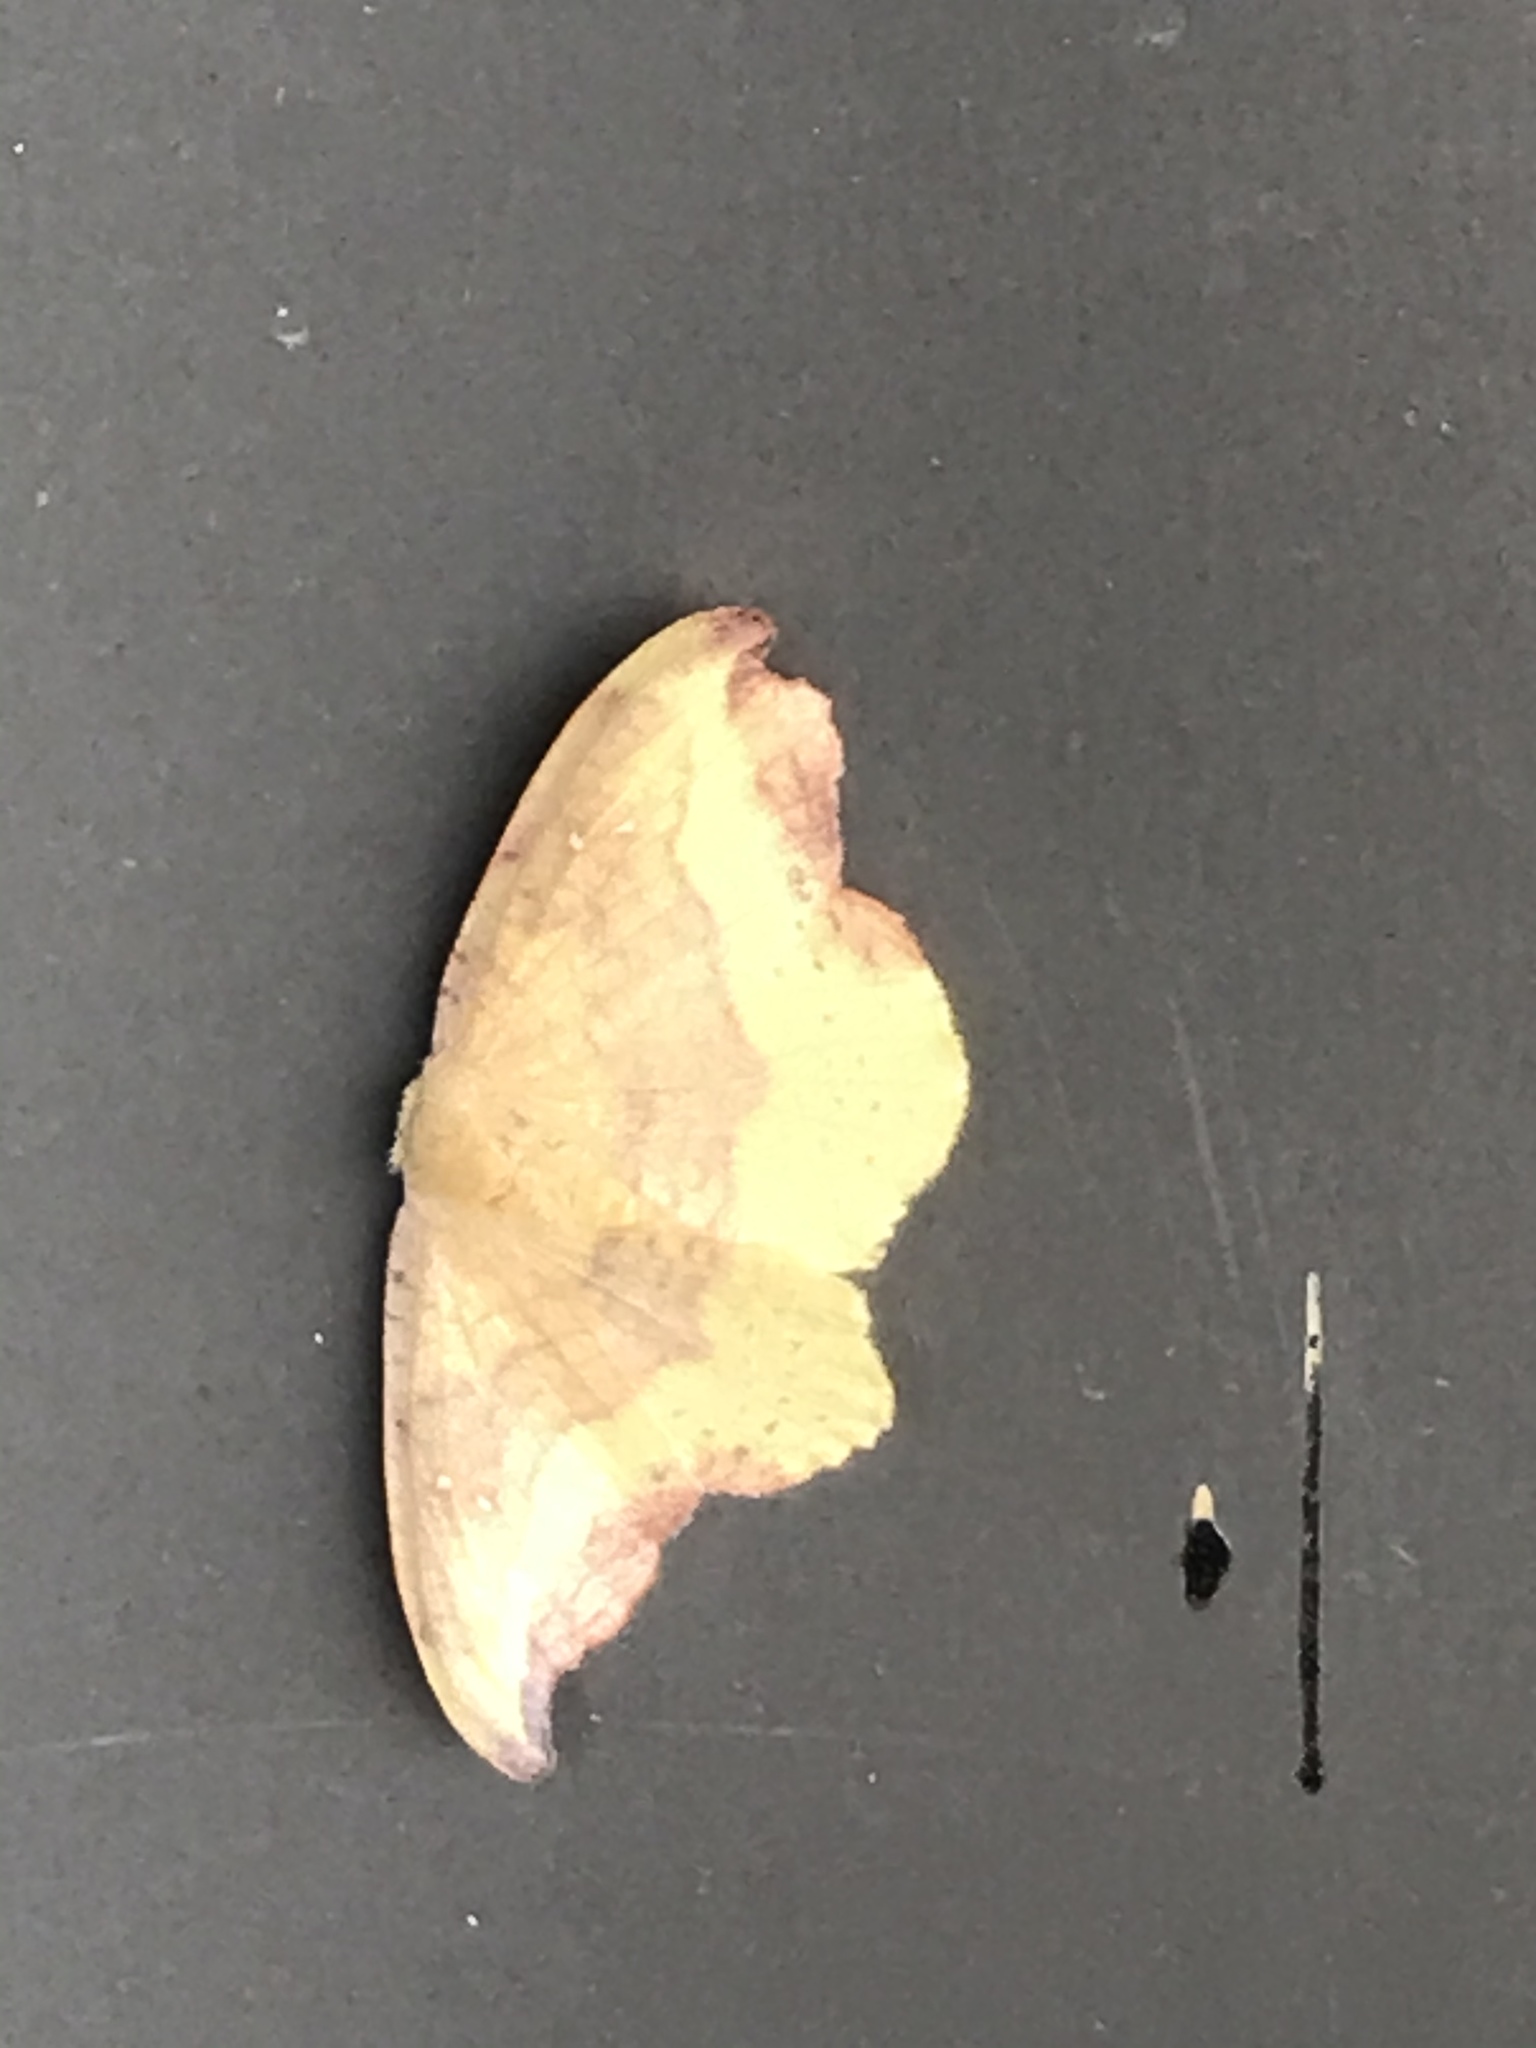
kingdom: Animalia
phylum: Arthropoda
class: Insecta
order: Lepidoptera
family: Drepanidae
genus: Oreta
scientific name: Oreta rosea
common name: Rose hooktip
